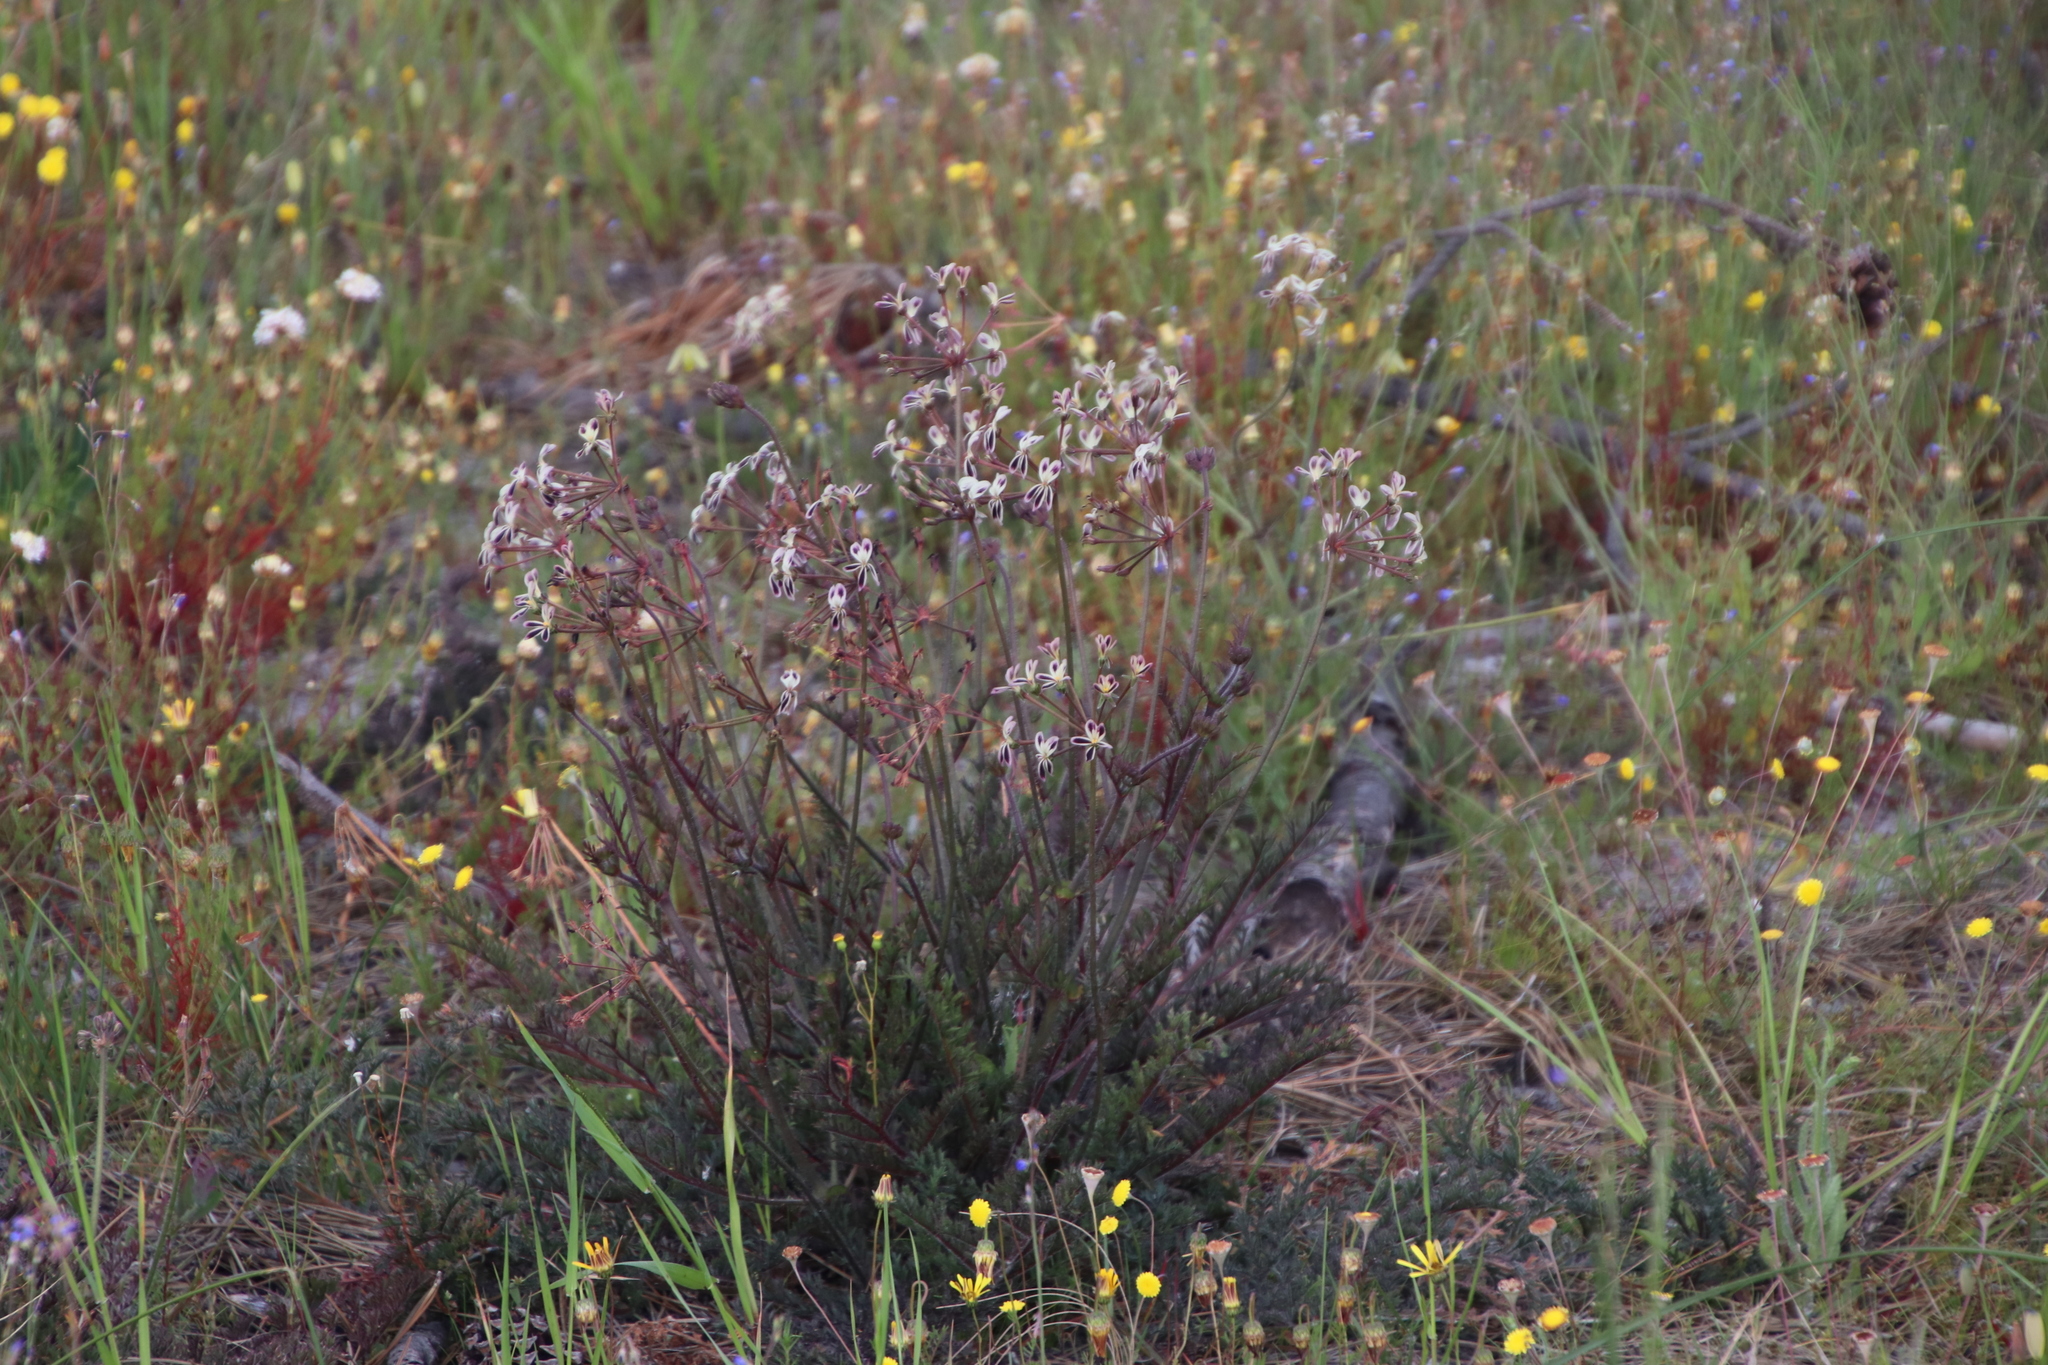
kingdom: Plantae
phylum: Tracheophyta
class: Magnoliopsida
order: Geraniales
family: Geraniaceae
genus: Pelargonium
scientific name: Pelargonium triste
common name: Night-scent pelargonium
